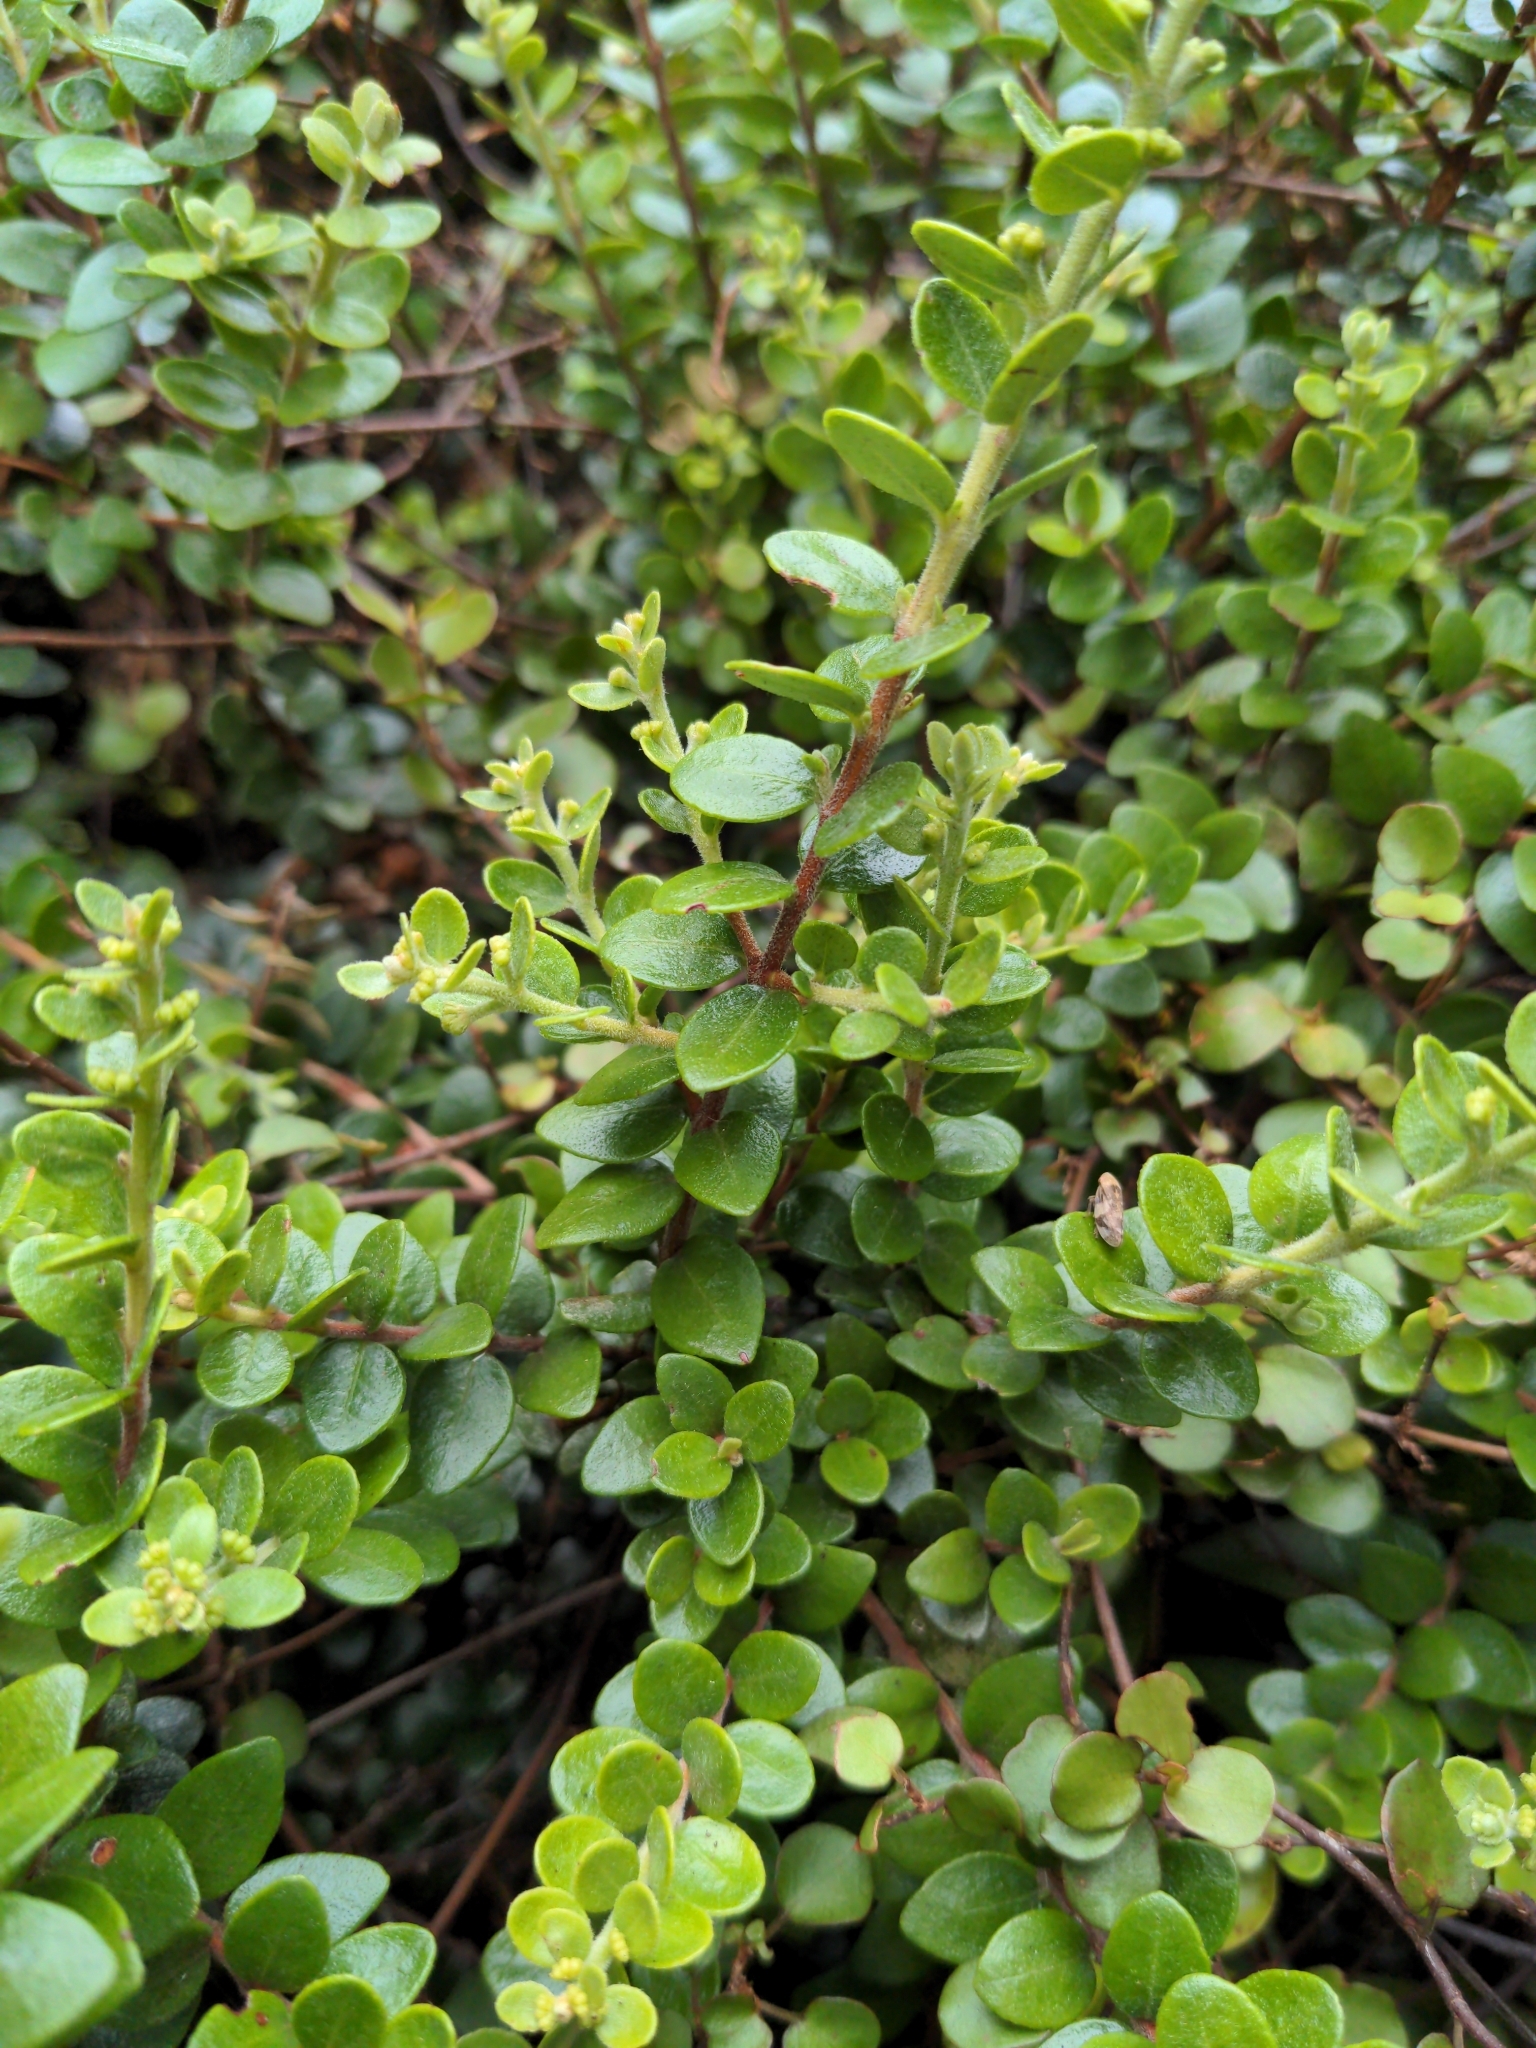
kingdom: Plantae
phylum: Tracheophyta
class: Magnoliopsida
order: Myrtales
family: Myrtaceae
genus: Metrosideros
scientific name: Metrosideros perforata
